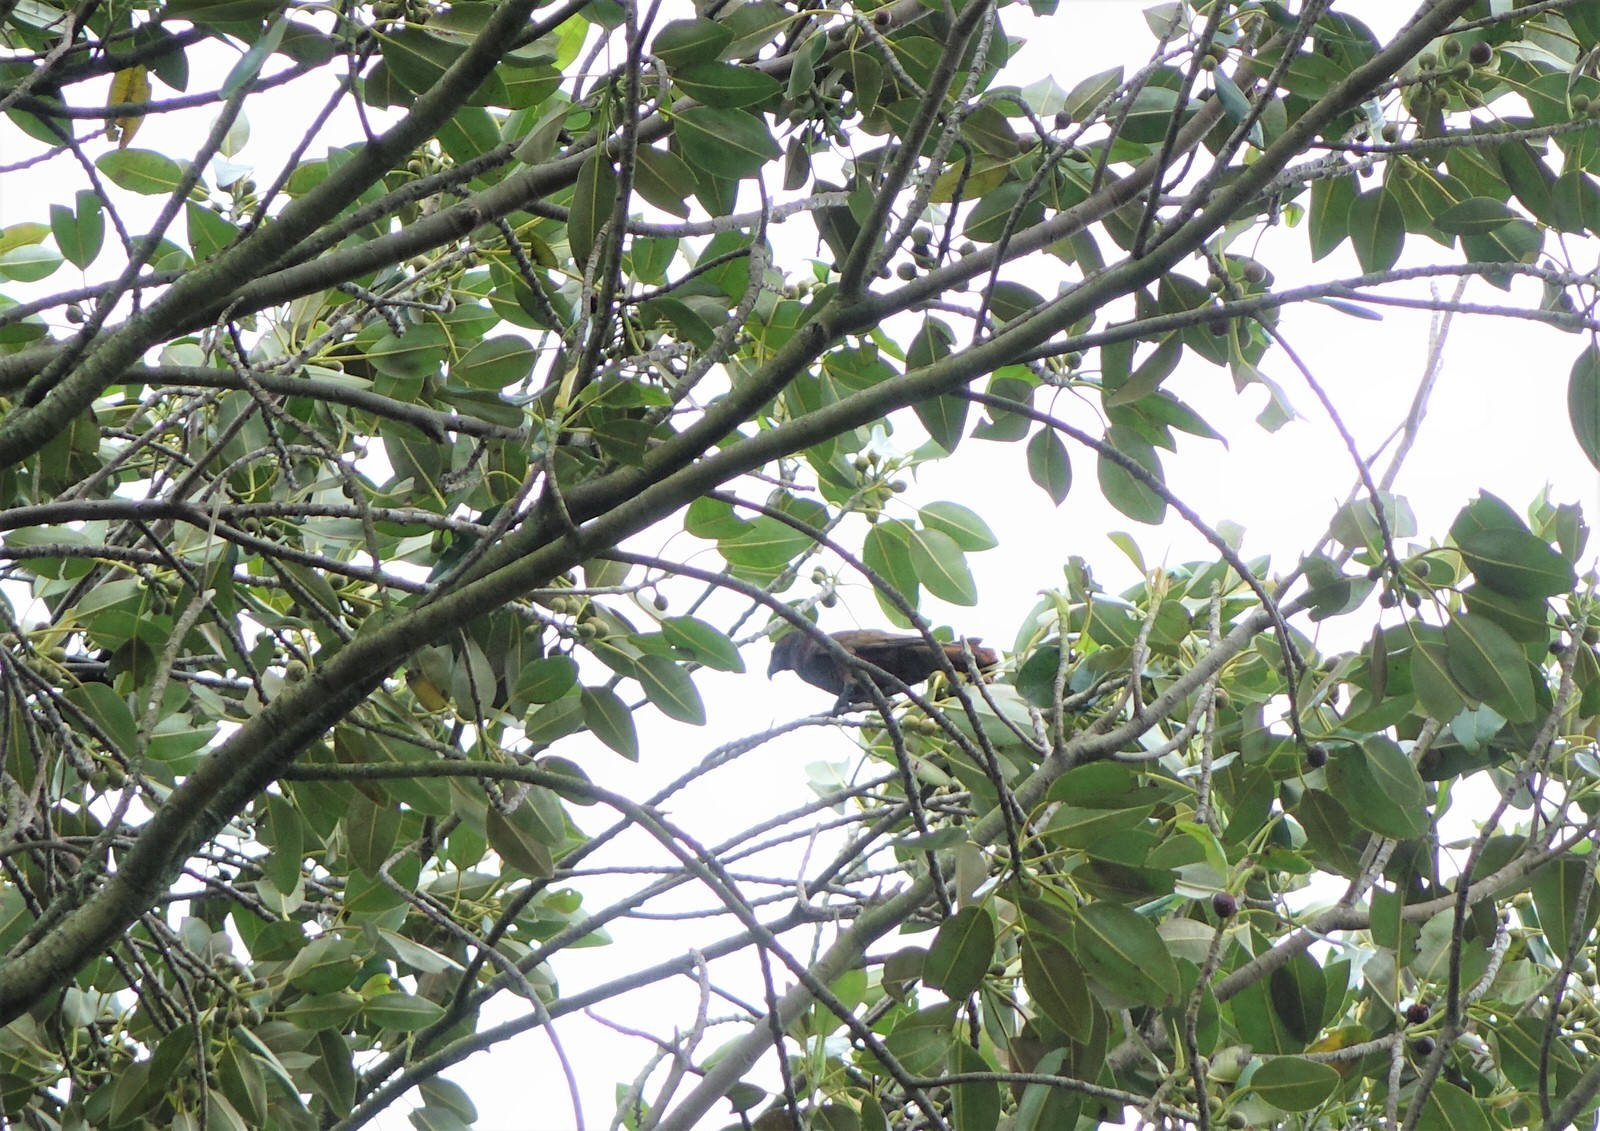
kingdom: Animalia
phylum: Chordata
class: Aves
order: Psittaciformes
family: Psittacidae
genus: Nestor
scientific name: Nestor meridionalis
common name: New zealand kaka
